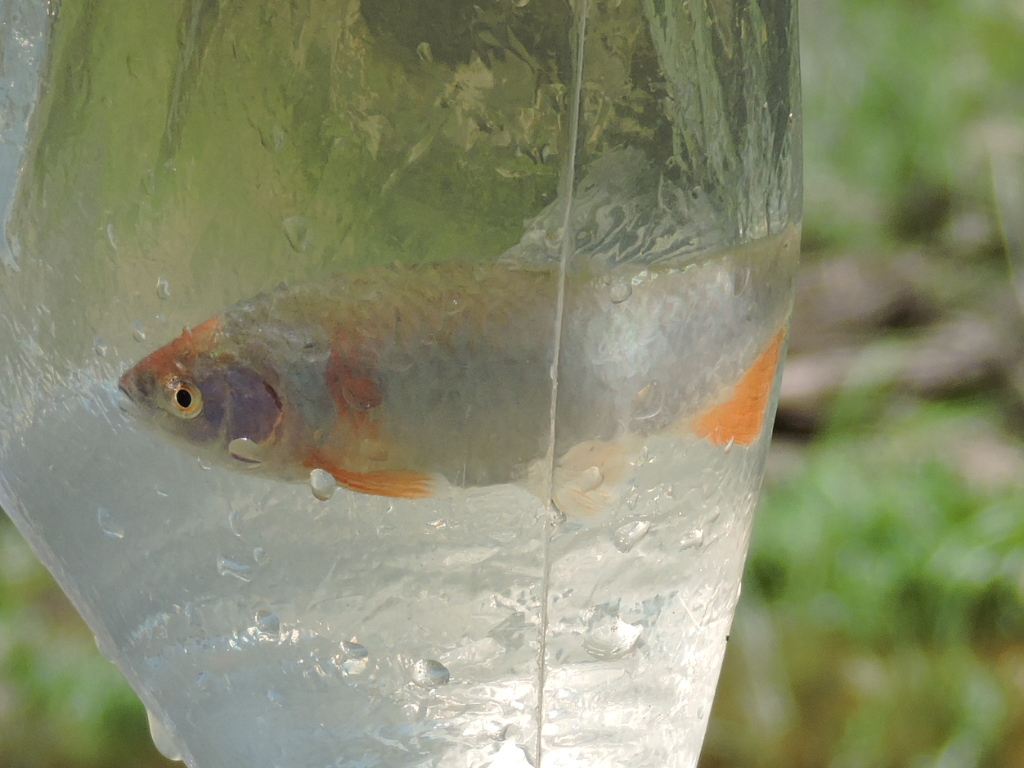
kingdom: Animalia
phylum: Chordata
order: Cypriniformes
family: Cyprinidae
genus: Cyprinella
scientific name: Cyprinella lutrensis
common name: Red shiner
